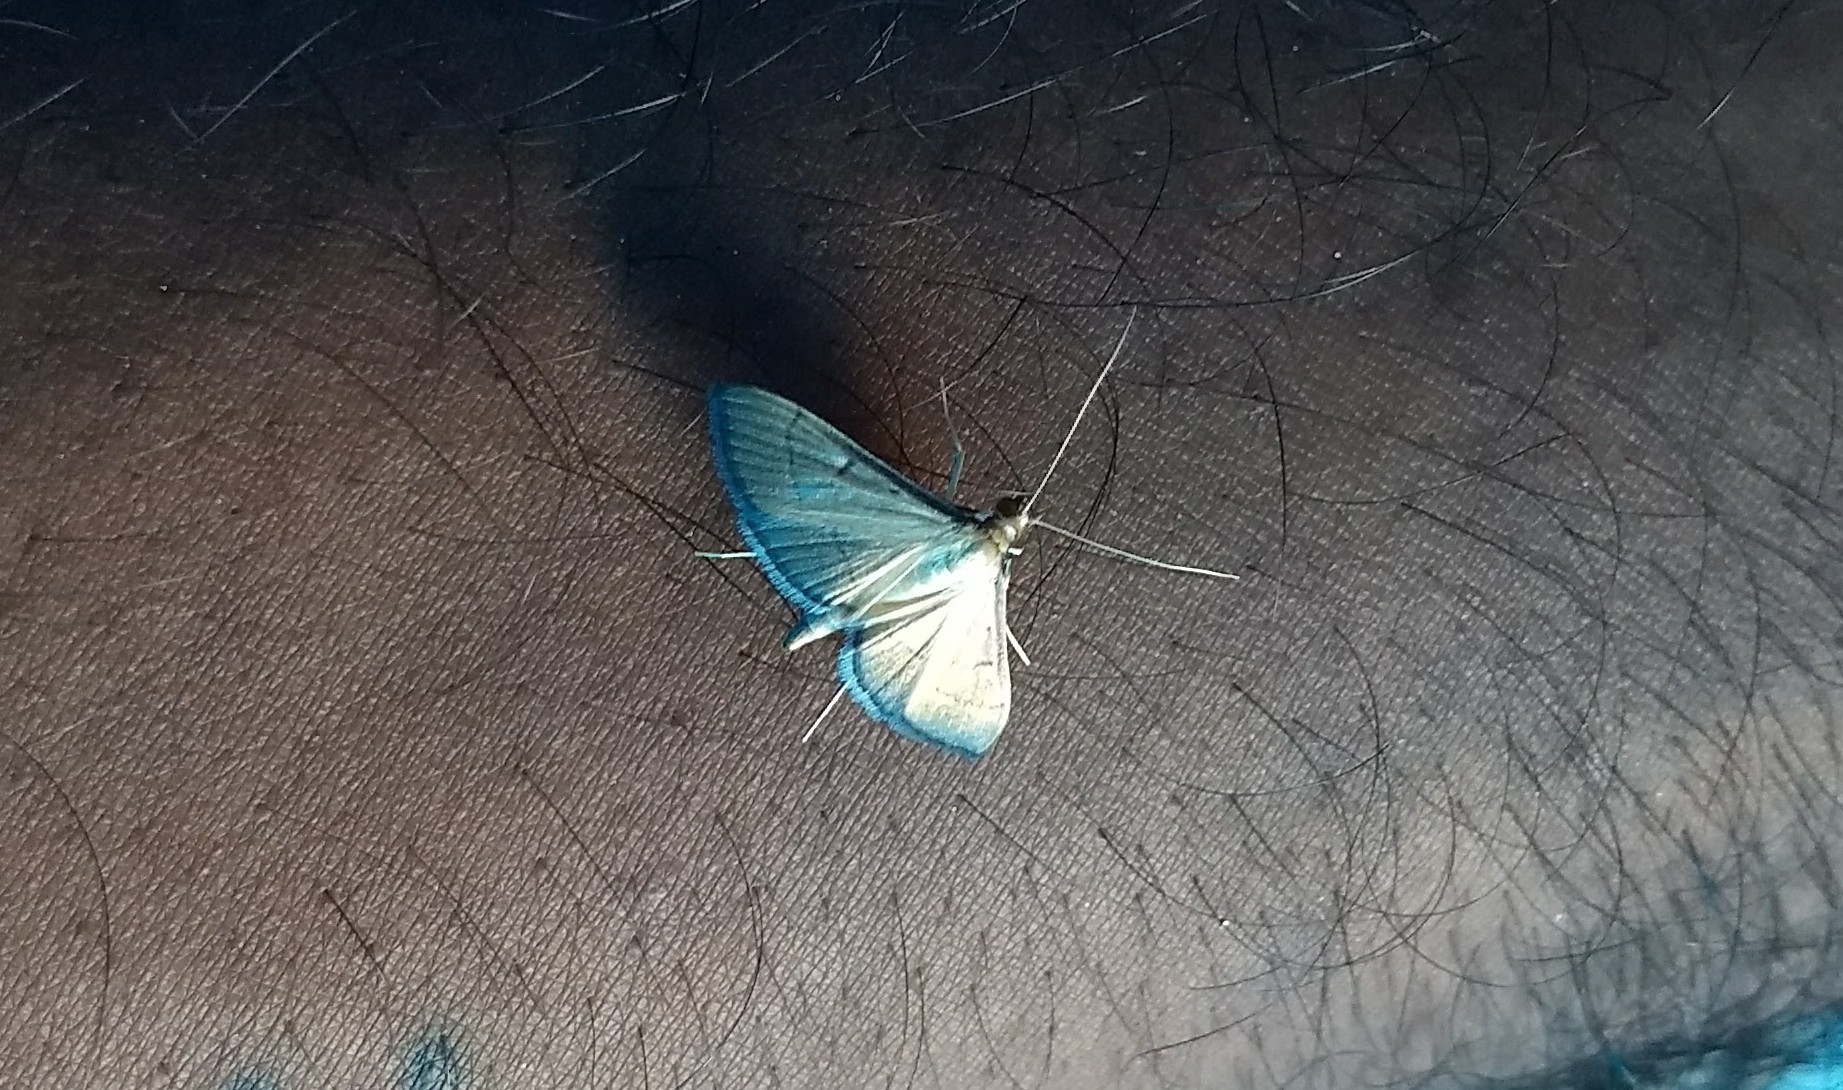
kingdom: Animalia
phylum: Arthropoda
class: Insecta
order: Lepidoptera
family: Crambidae
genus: Bradina
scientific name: Bradina admixtalis
